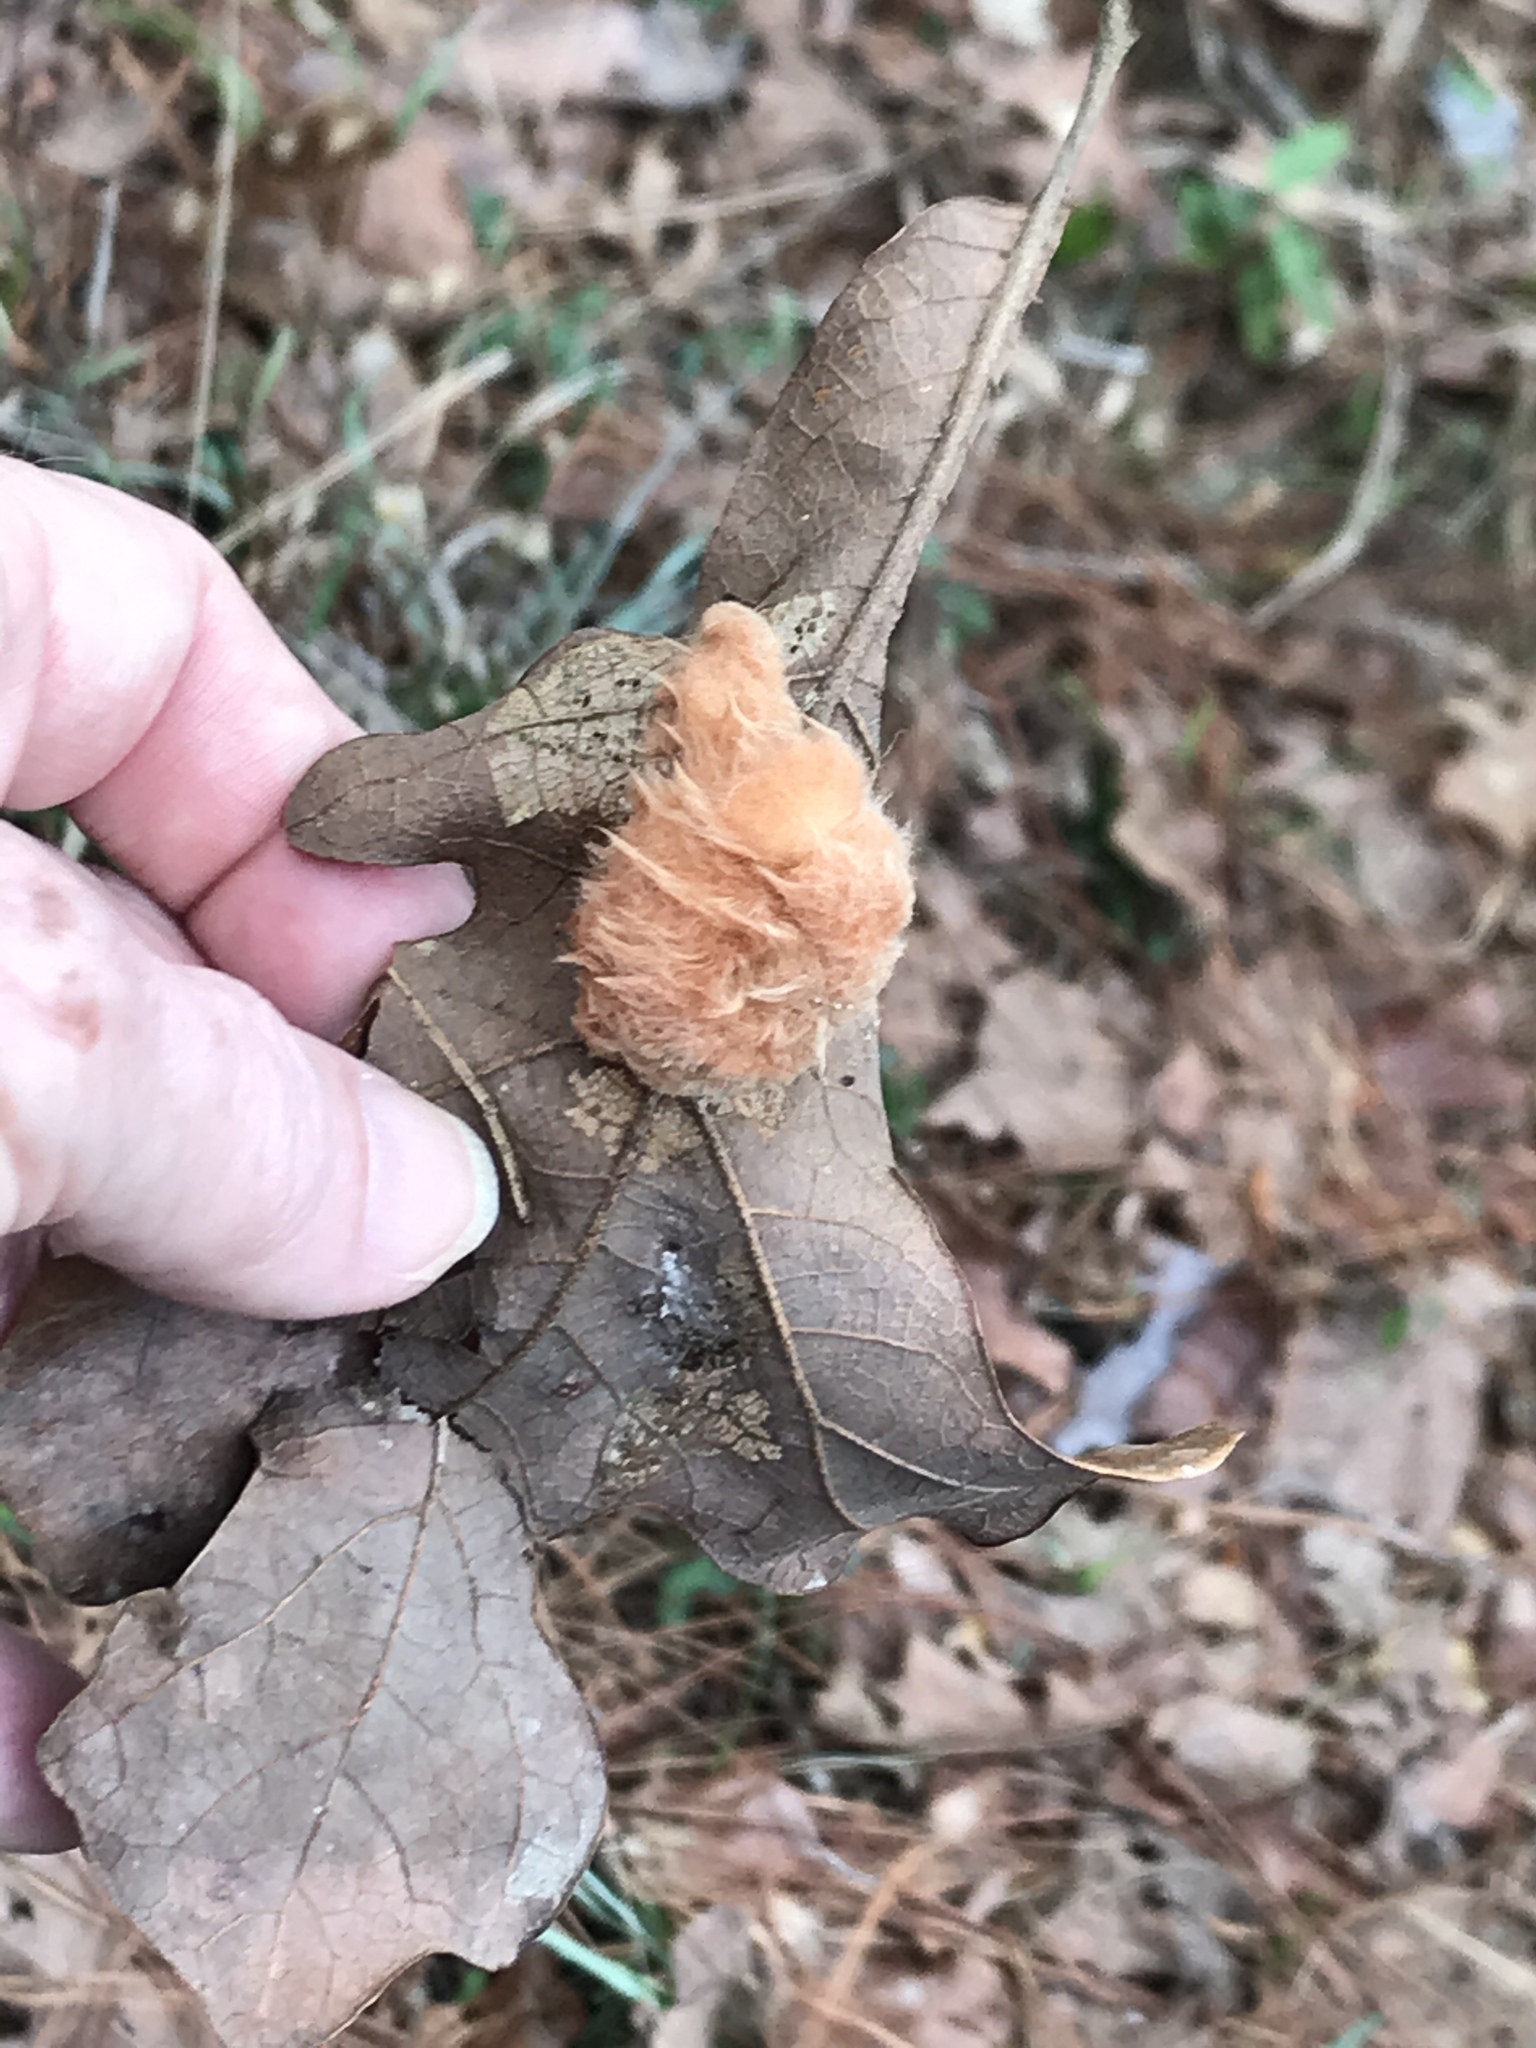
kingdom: Animalia
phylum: Arthropoda
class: Insecta
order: Hymenoptera
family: Cynipidae
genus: Andricus
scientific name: Andricus Druon pattoni
